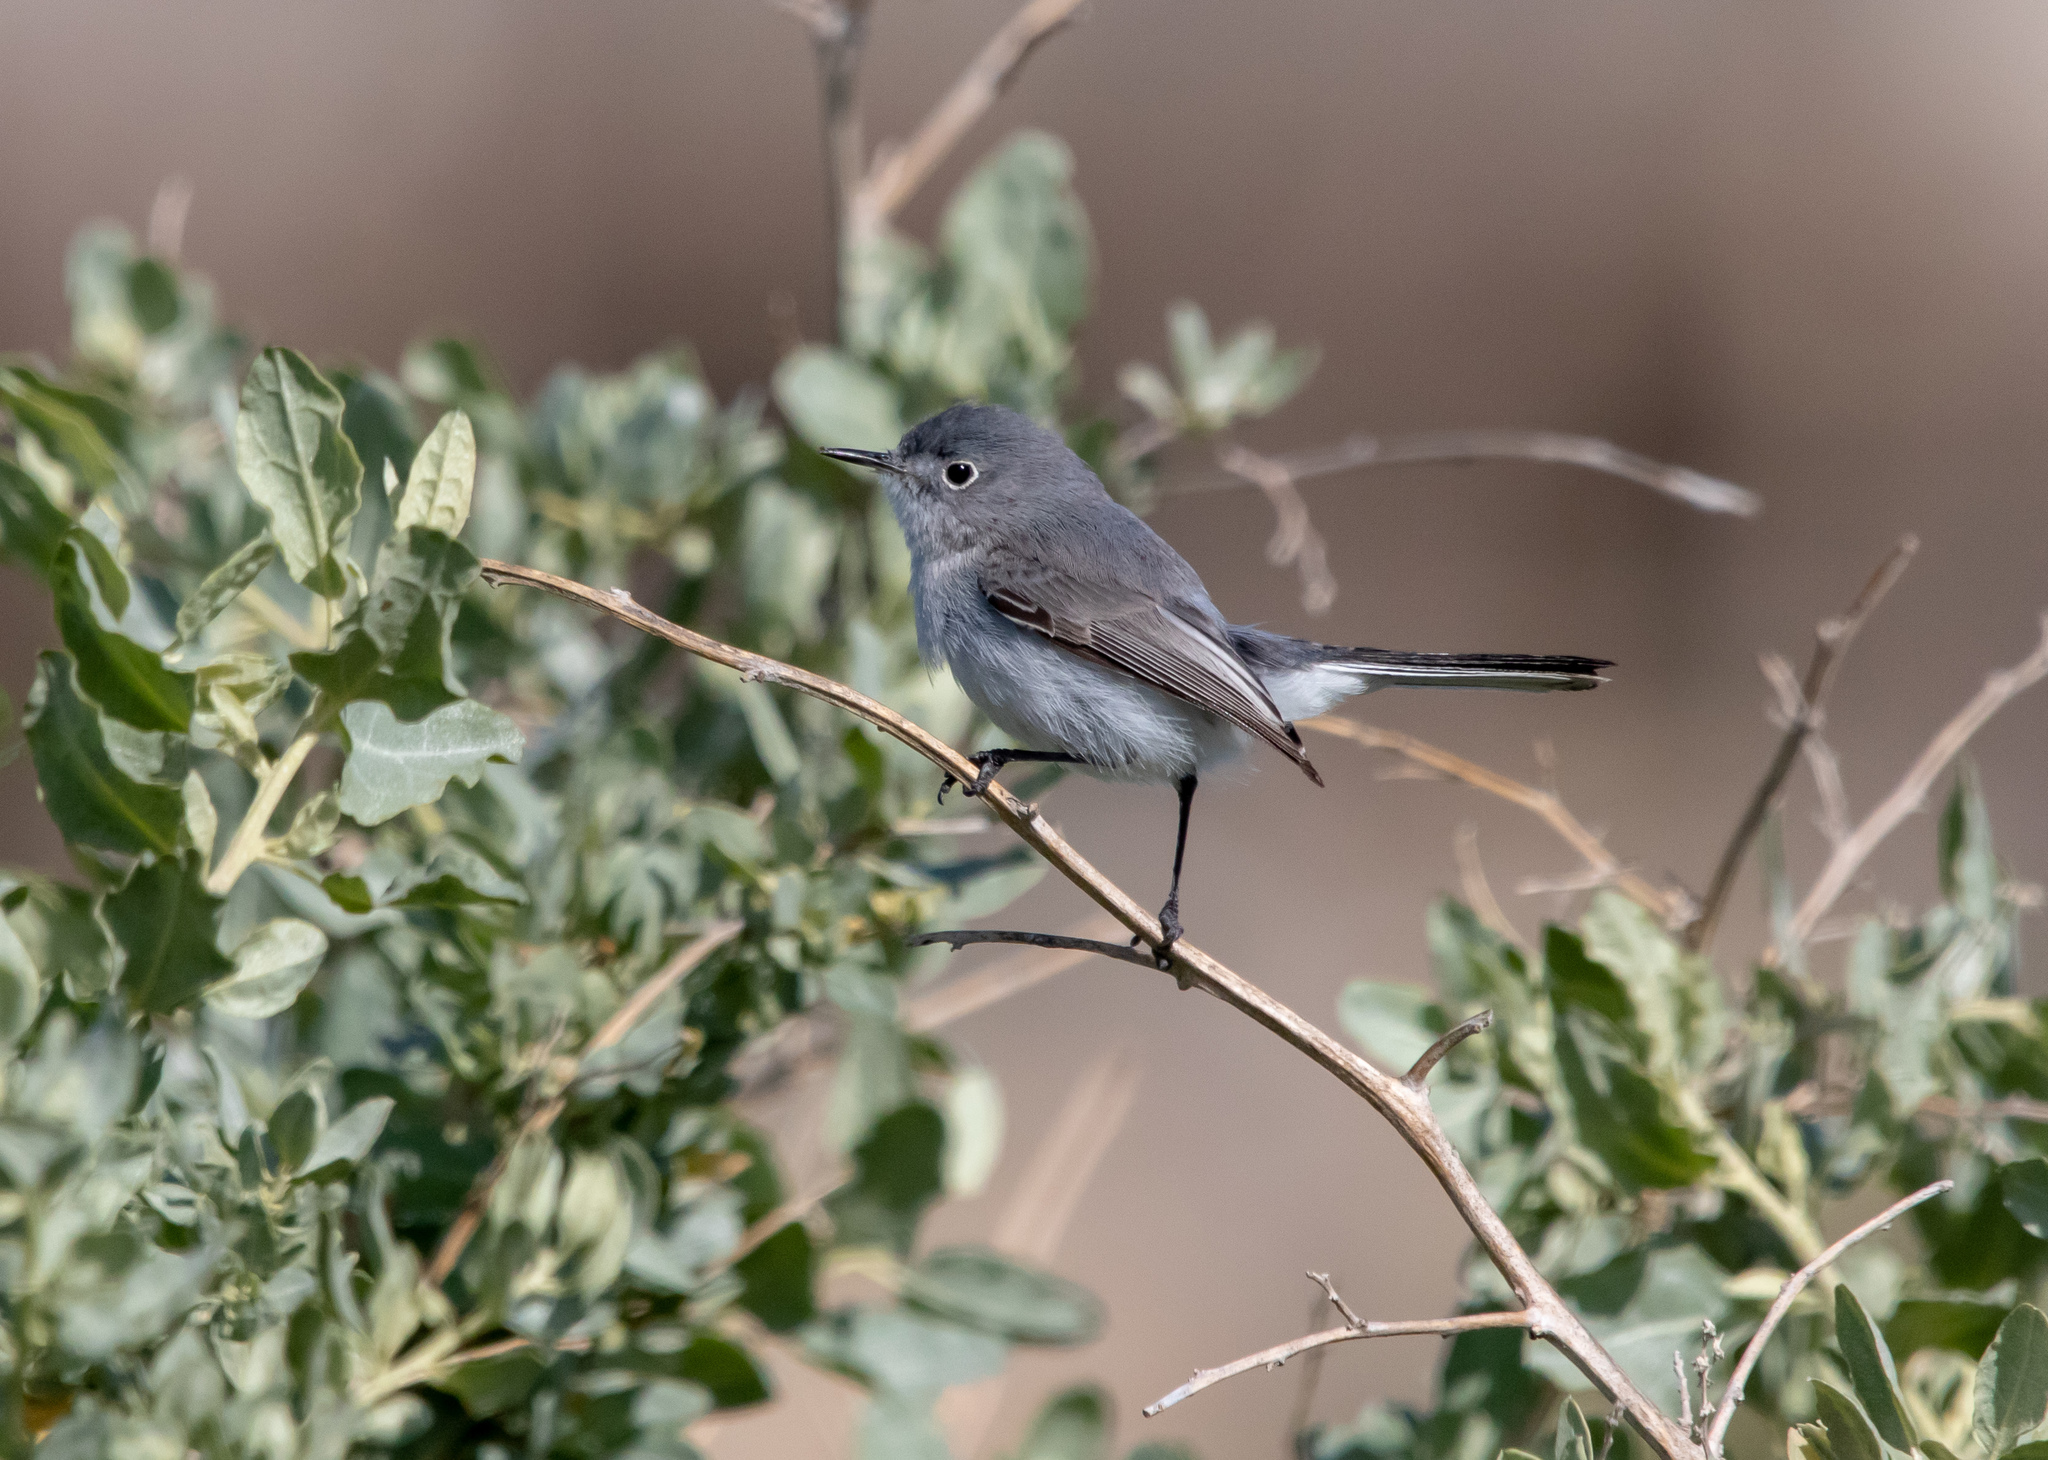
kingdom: Animalia
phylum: Chordata
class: Aves
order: Passeriformes
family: Polioptilidae
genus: Polioptila
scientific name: Polioptila caerulea
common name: Blue-gray gnatcatcher
